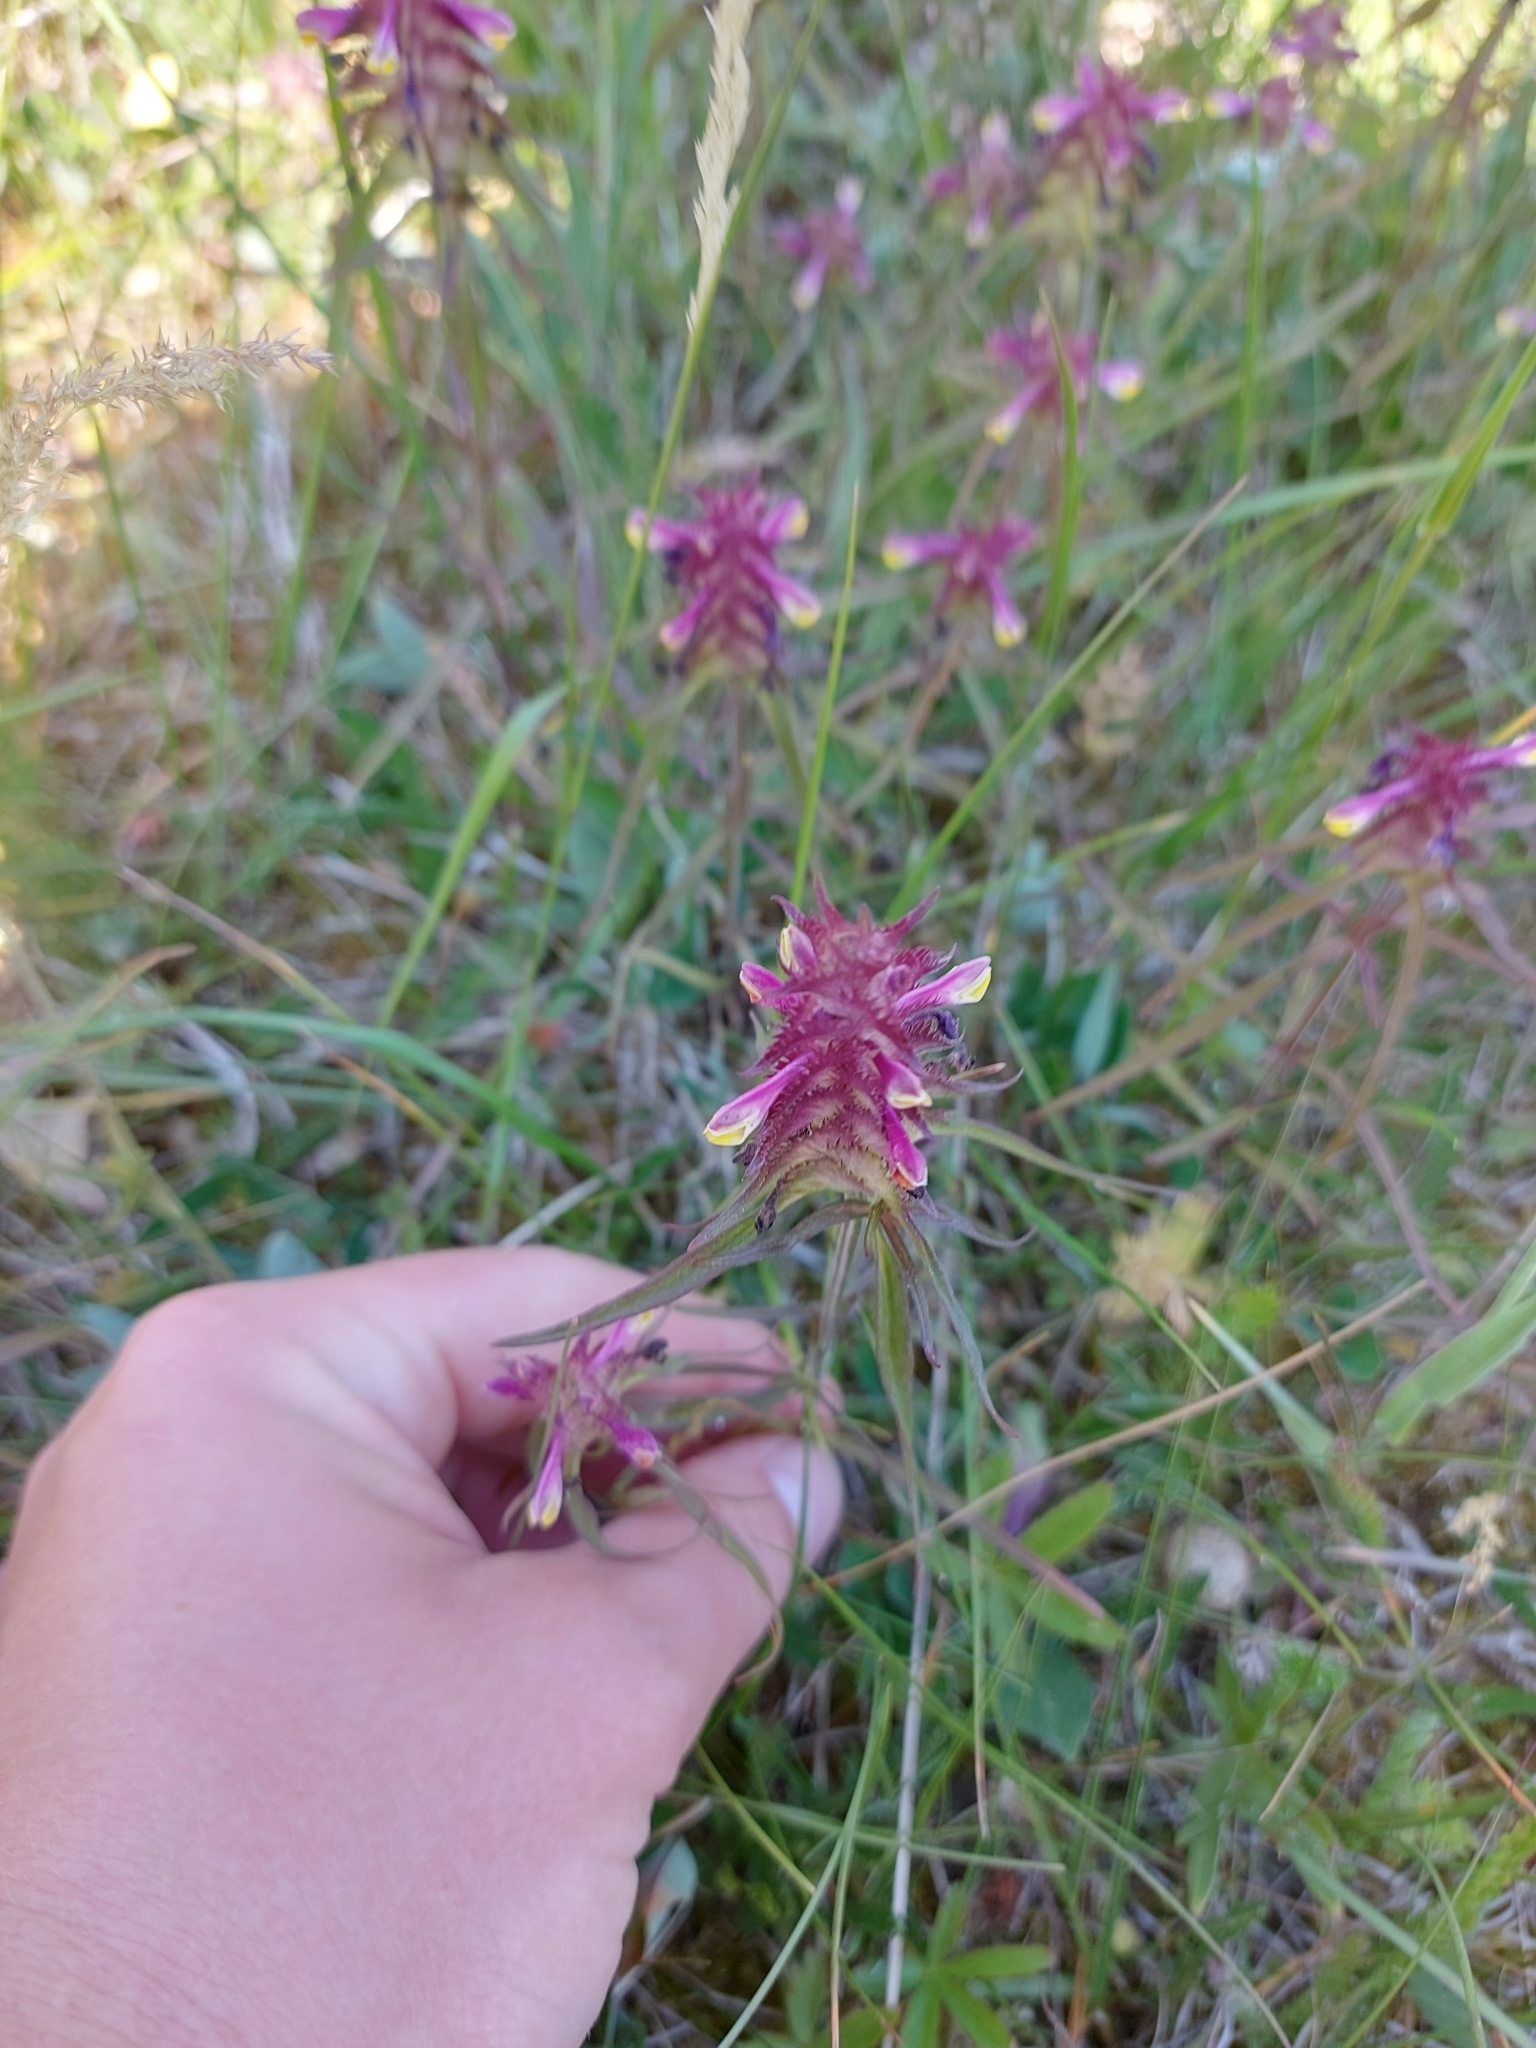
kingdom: Plantae
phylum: Tracheophyta
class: Magnoliopsida
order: Lamiales
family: Orobanchaceae
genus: Melampyrum
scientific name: Melampyrum cristatum
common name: Crested cow-wheat
